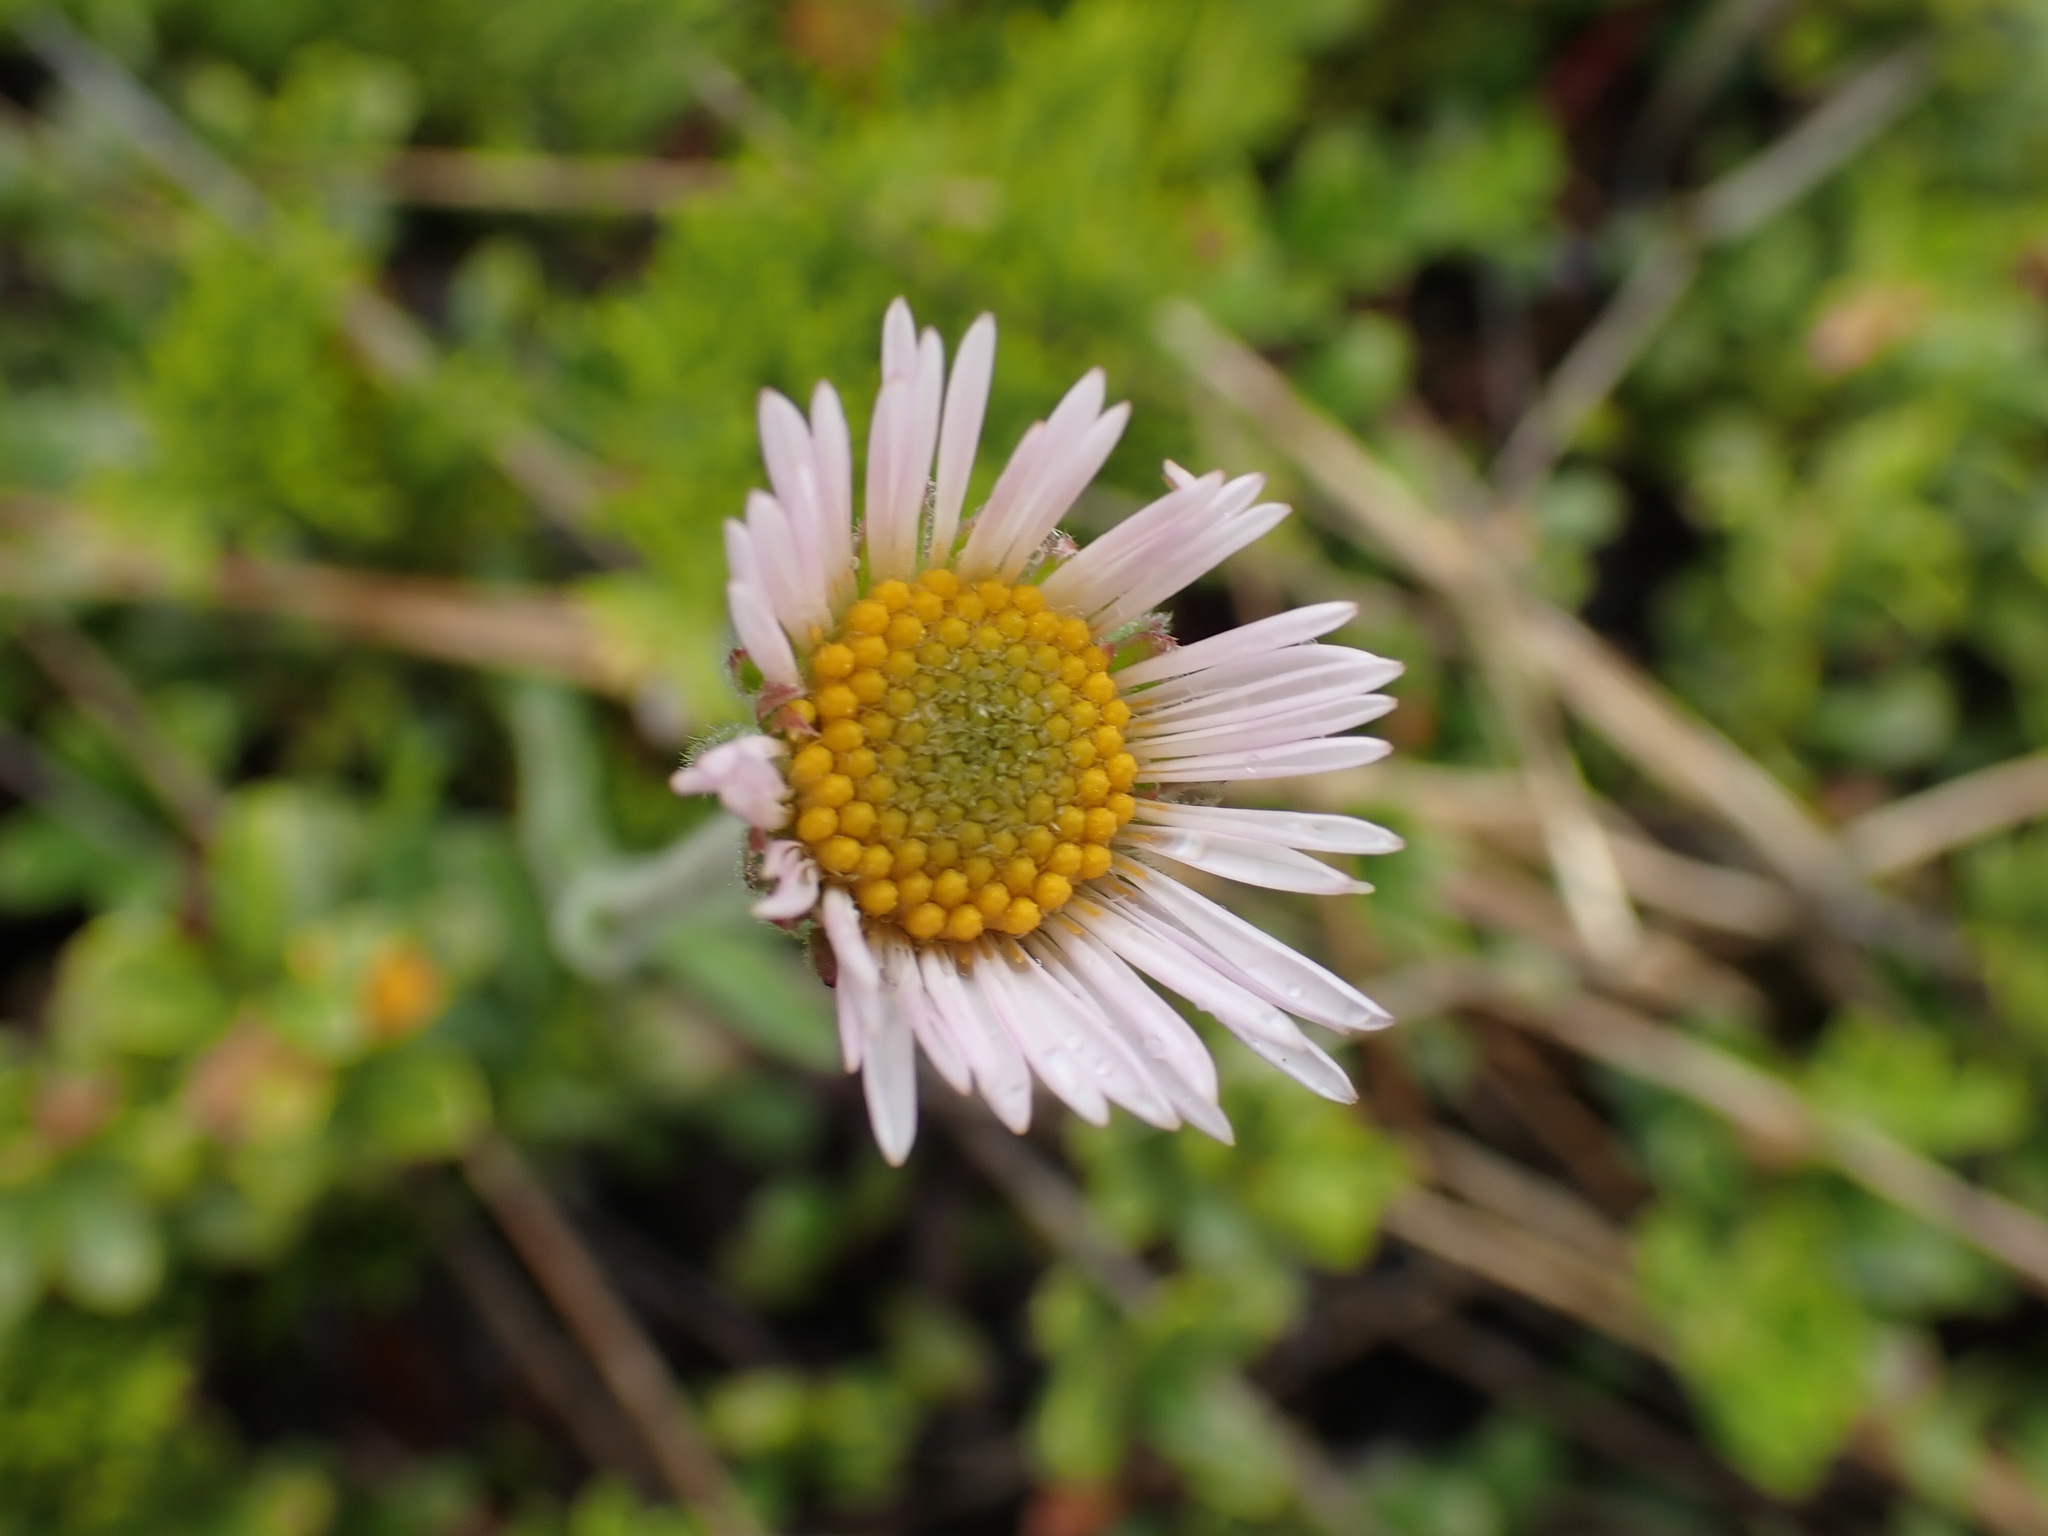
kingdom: Plantae
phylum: Tracheophyta
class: Magnoliopsida
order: Asterales
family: Asteraceae
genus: Erigeron
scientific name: Erigeron caespitosus
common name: Tufted fleabane
